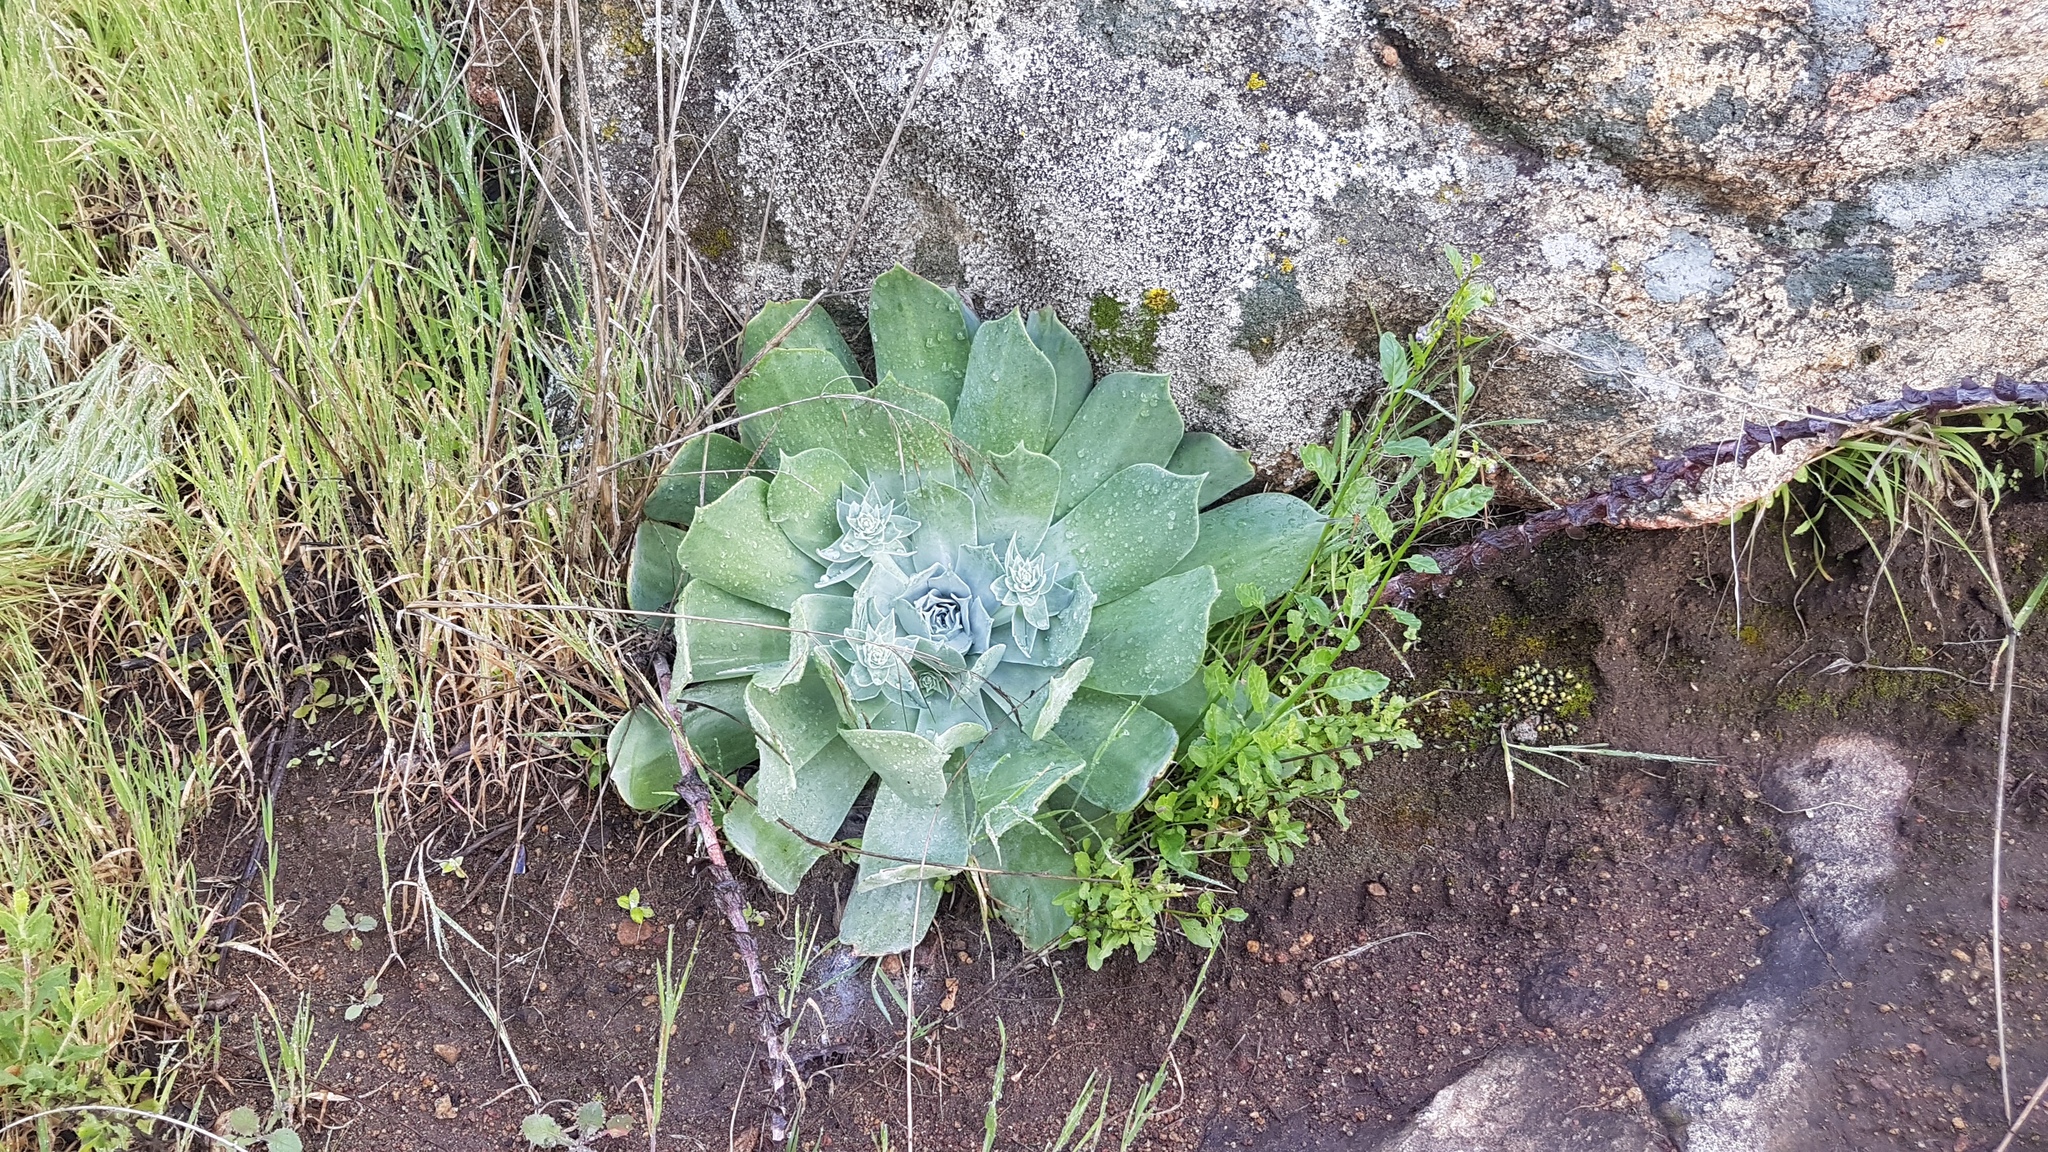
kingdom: Plantae
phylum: Tracheophyta
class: Magnoliopsida
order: Saxifragales
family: Crassulaceae
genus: Dudleya
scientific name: Dudleya pulverulenta
